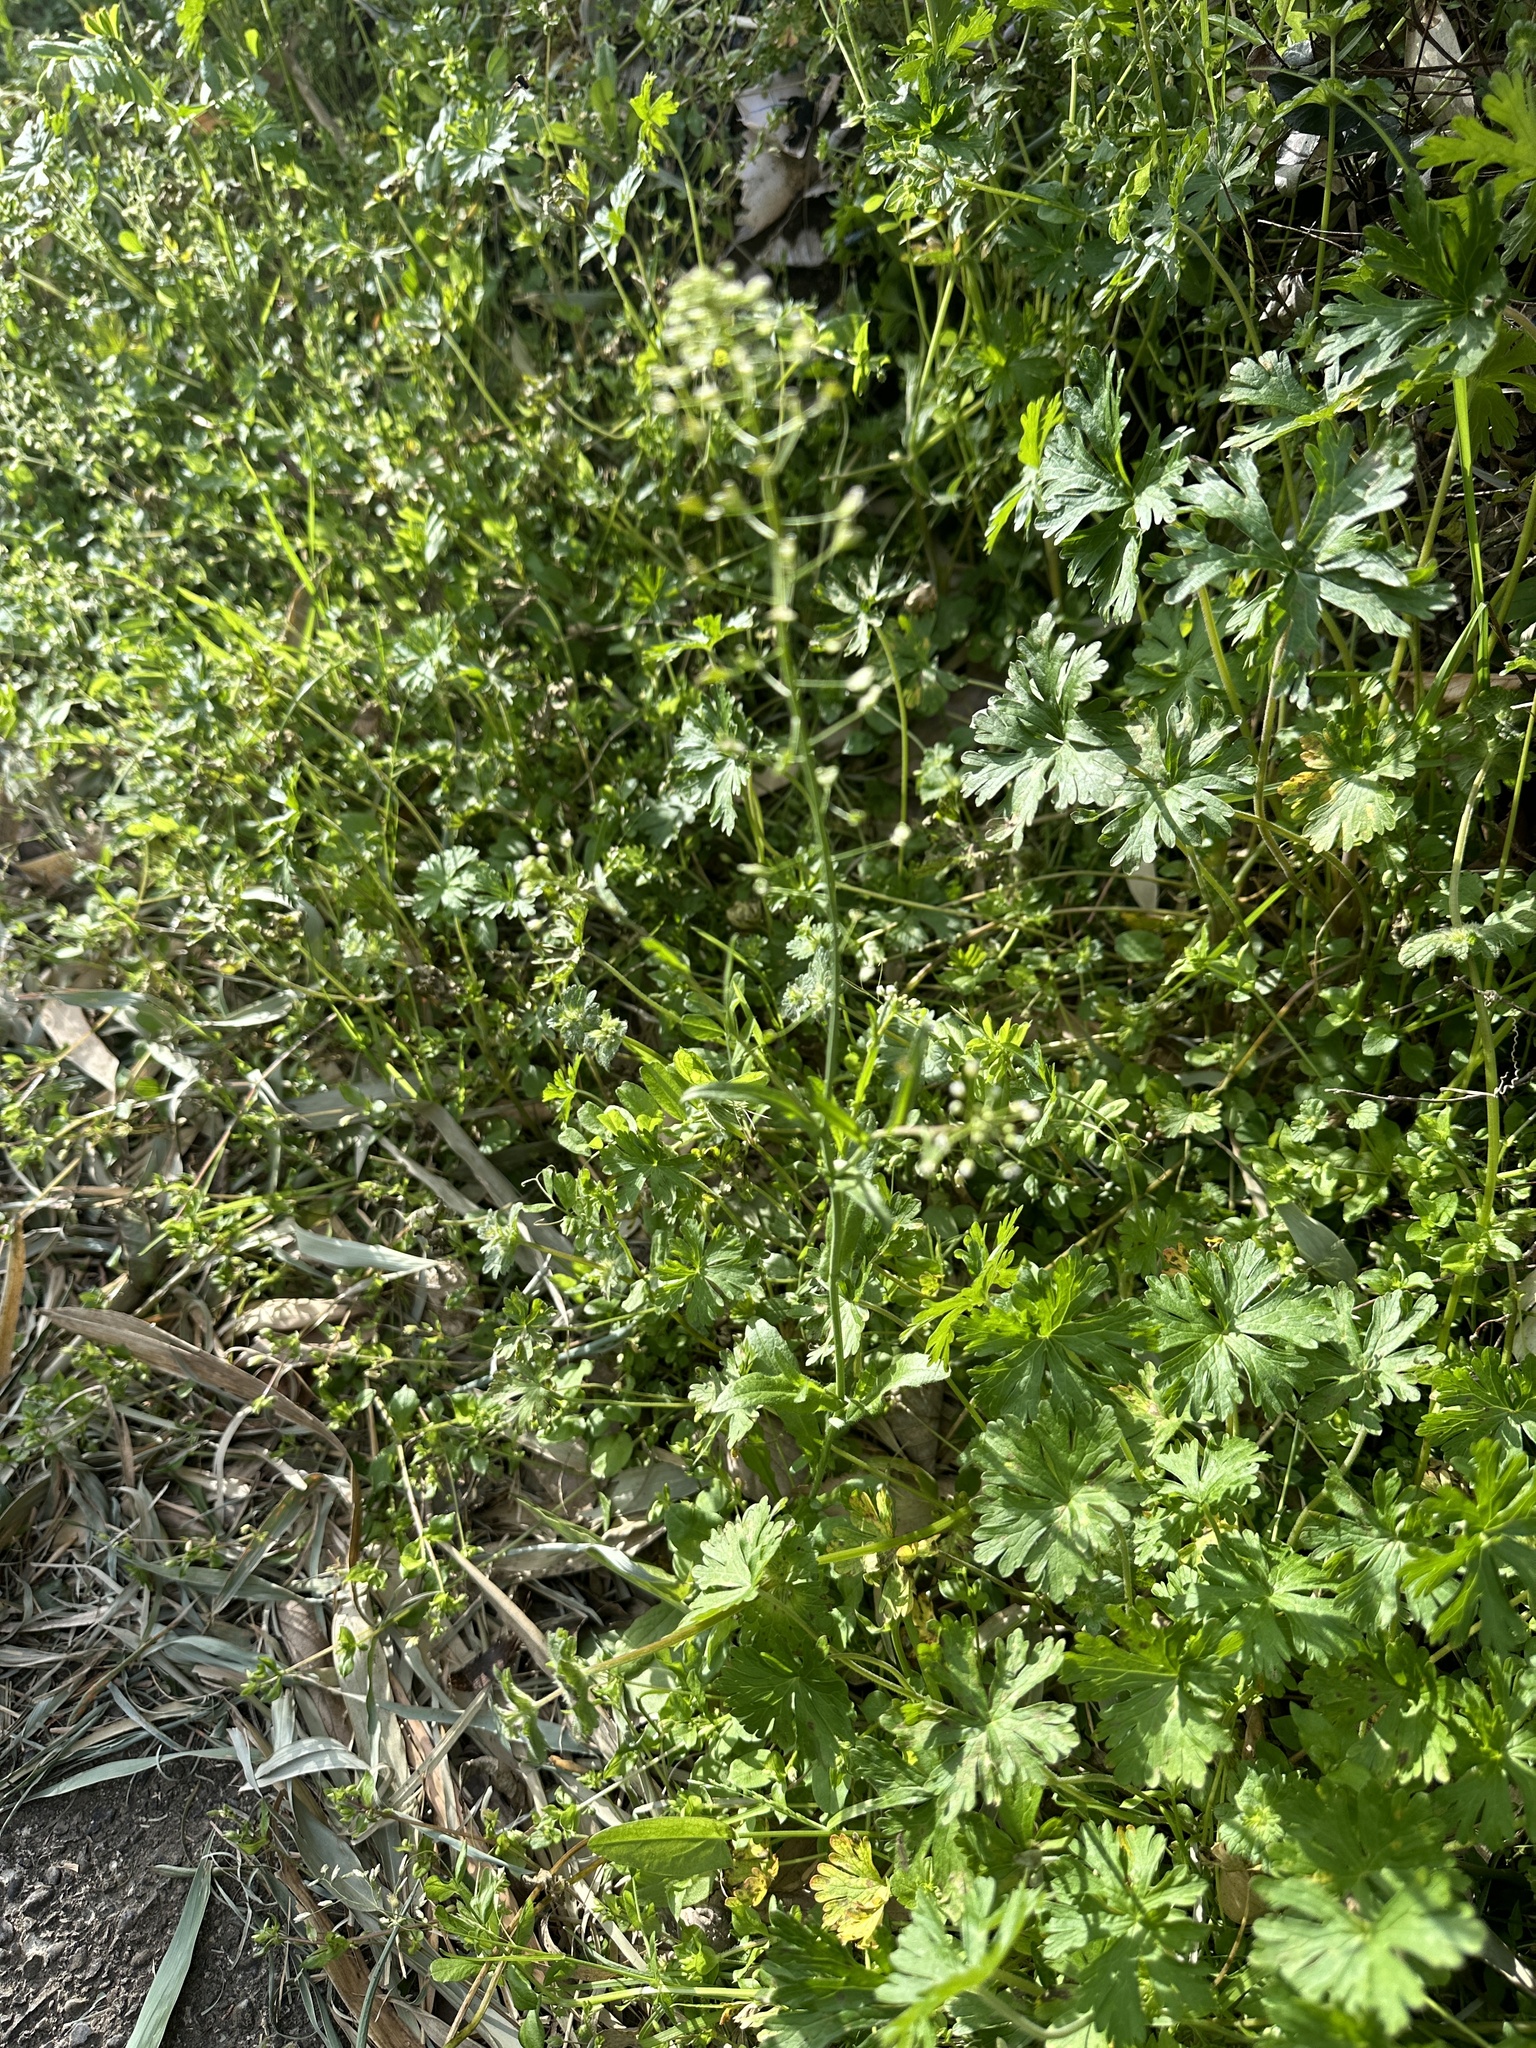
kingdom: Plantae
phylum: Tracheophyta
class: Magnoliopsida
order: Brassicales
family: Brassicaceae
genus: Capsella
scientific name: Capsella bursa-pastoris
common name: Shepherd's purse
